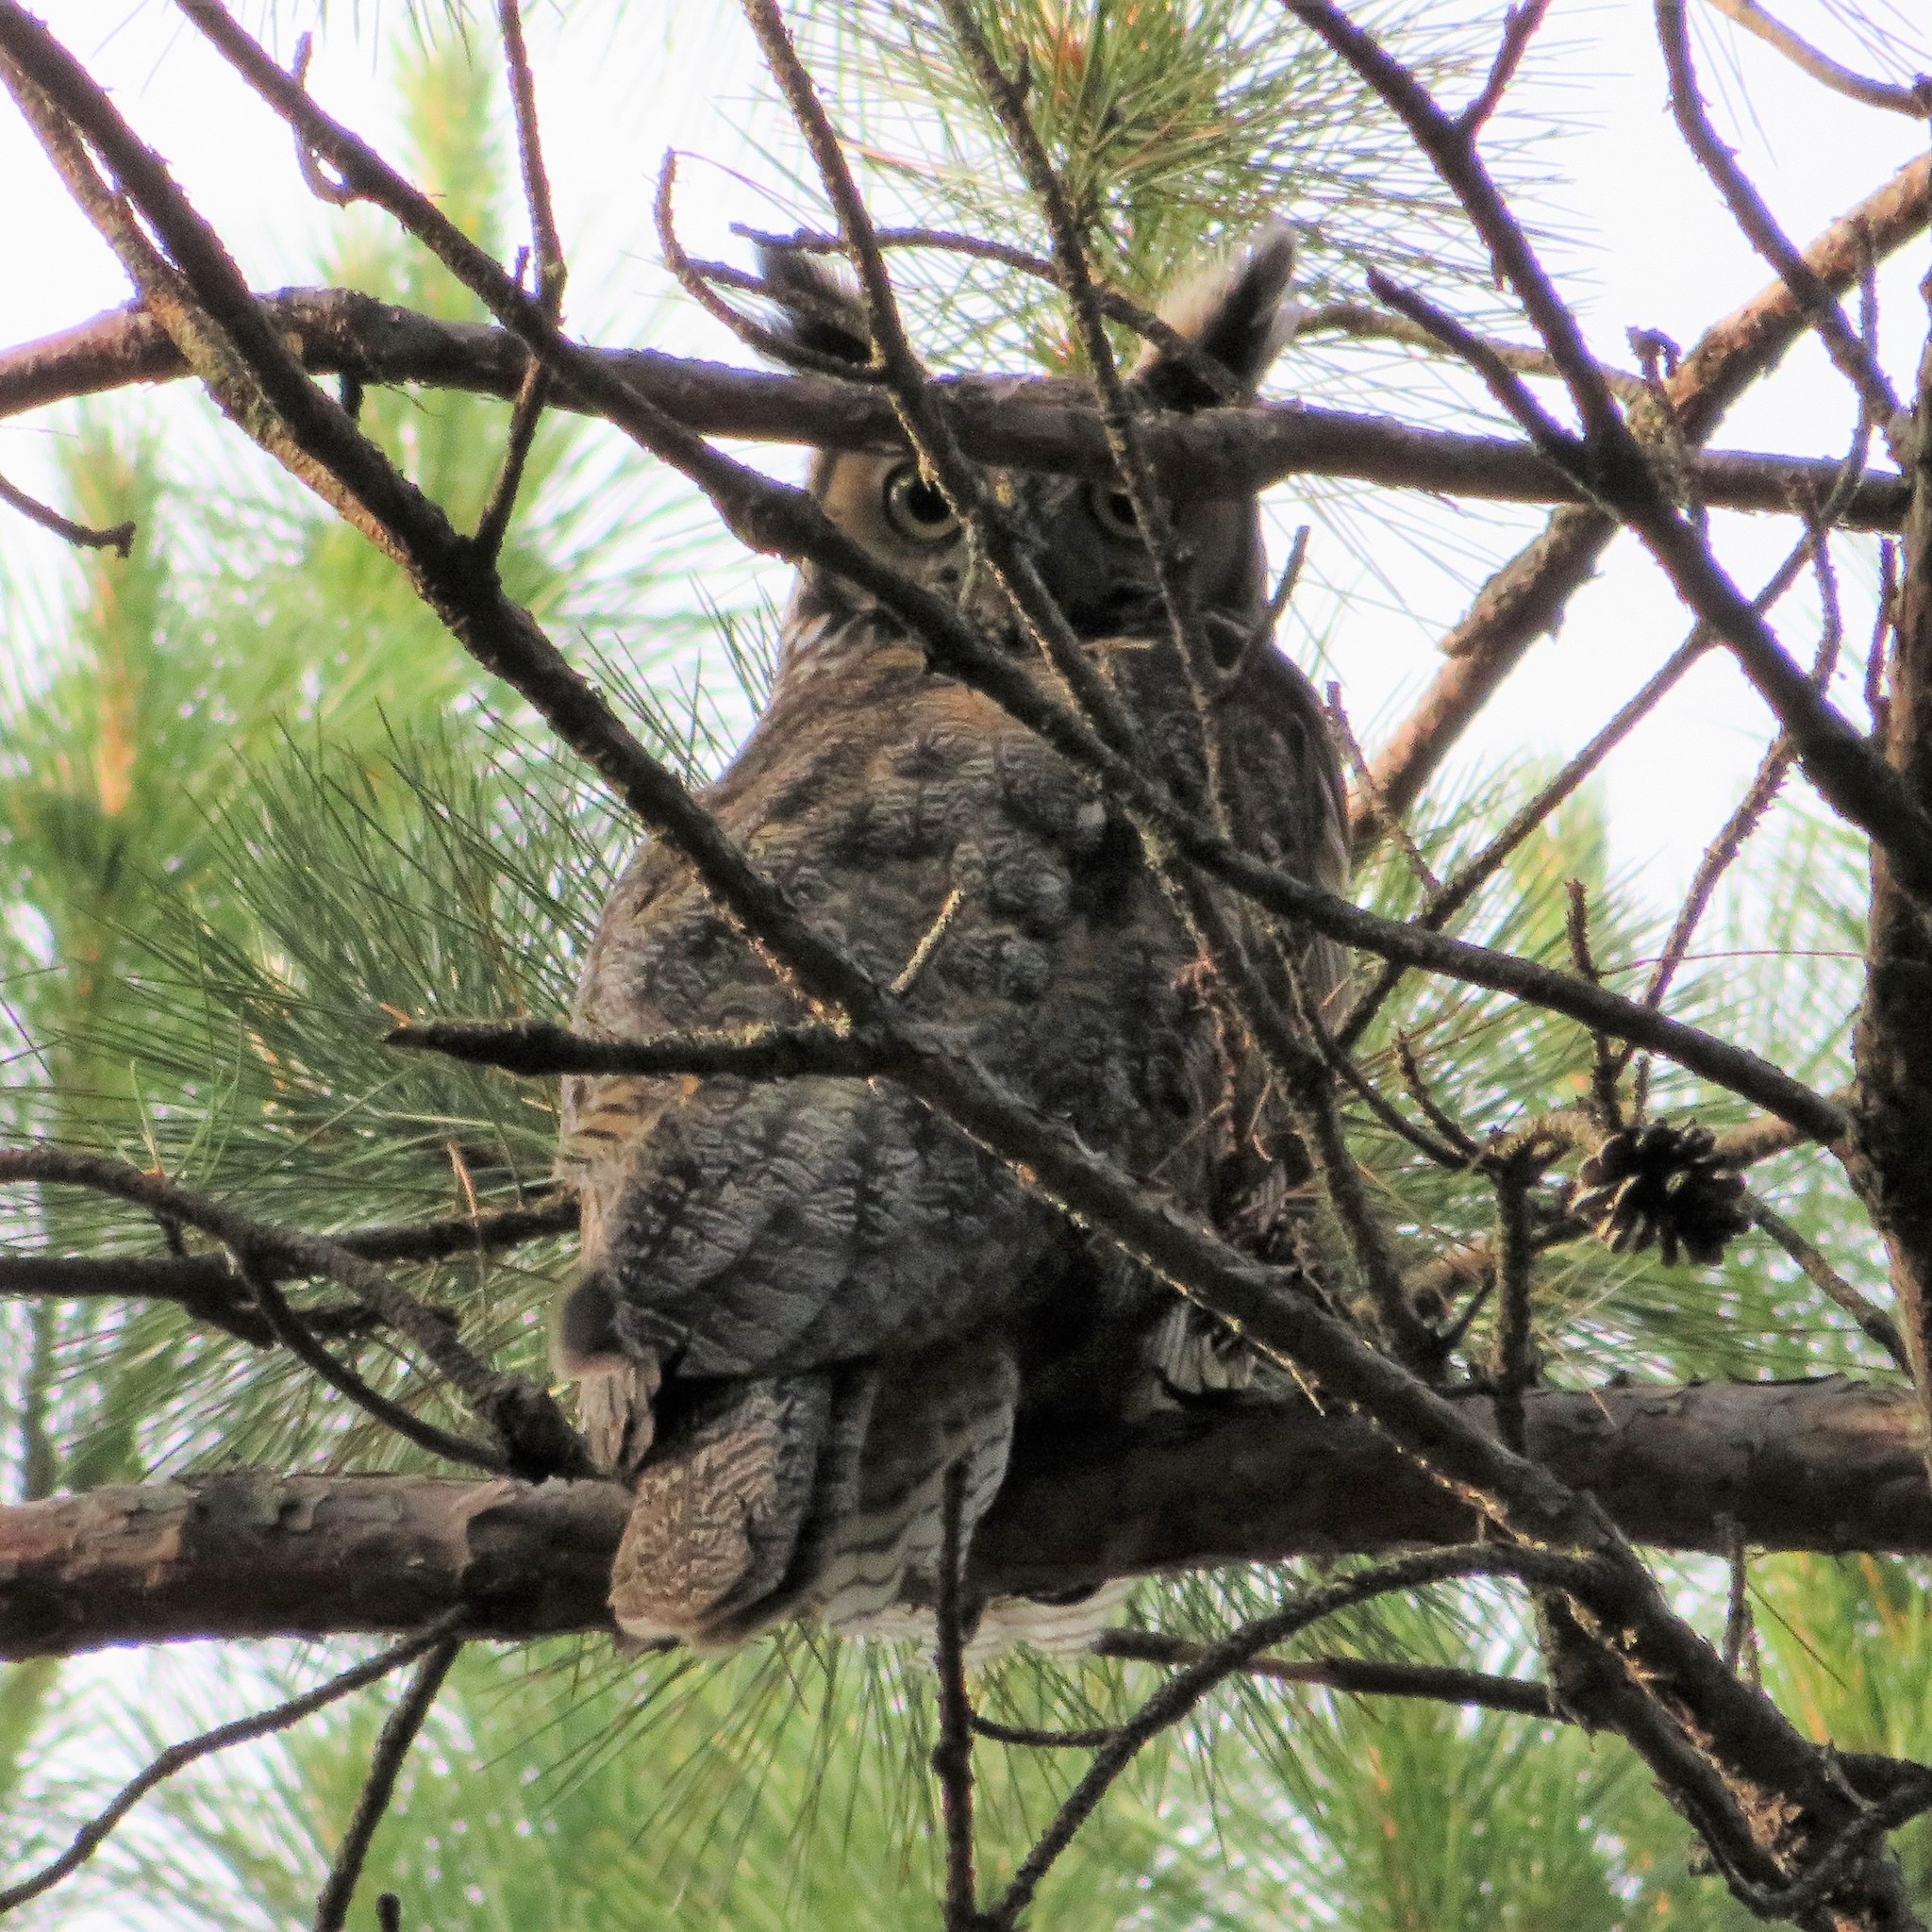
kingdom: Animalia
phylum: Chordata
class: Aves
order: Strigiformes
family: Strigidae
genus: Bubo
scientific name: Bubo virginianus
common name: Great horned owl
